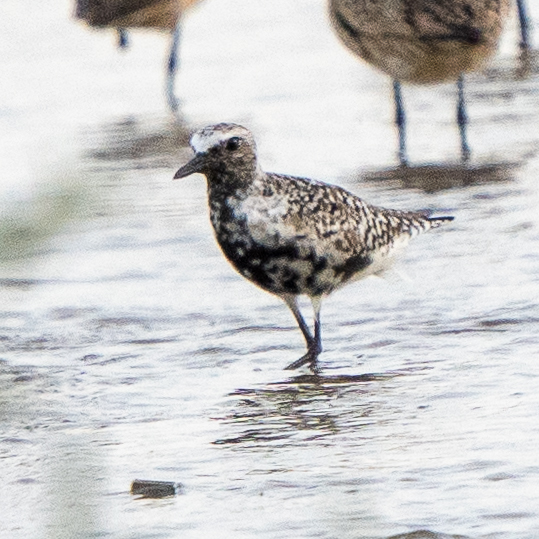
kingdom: Animalia
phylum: Chordata
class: Aves
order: Charadriiformes
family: Charadriidae
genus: Pluvialis
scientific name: Pluvialis squatarola
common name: Grey plover
